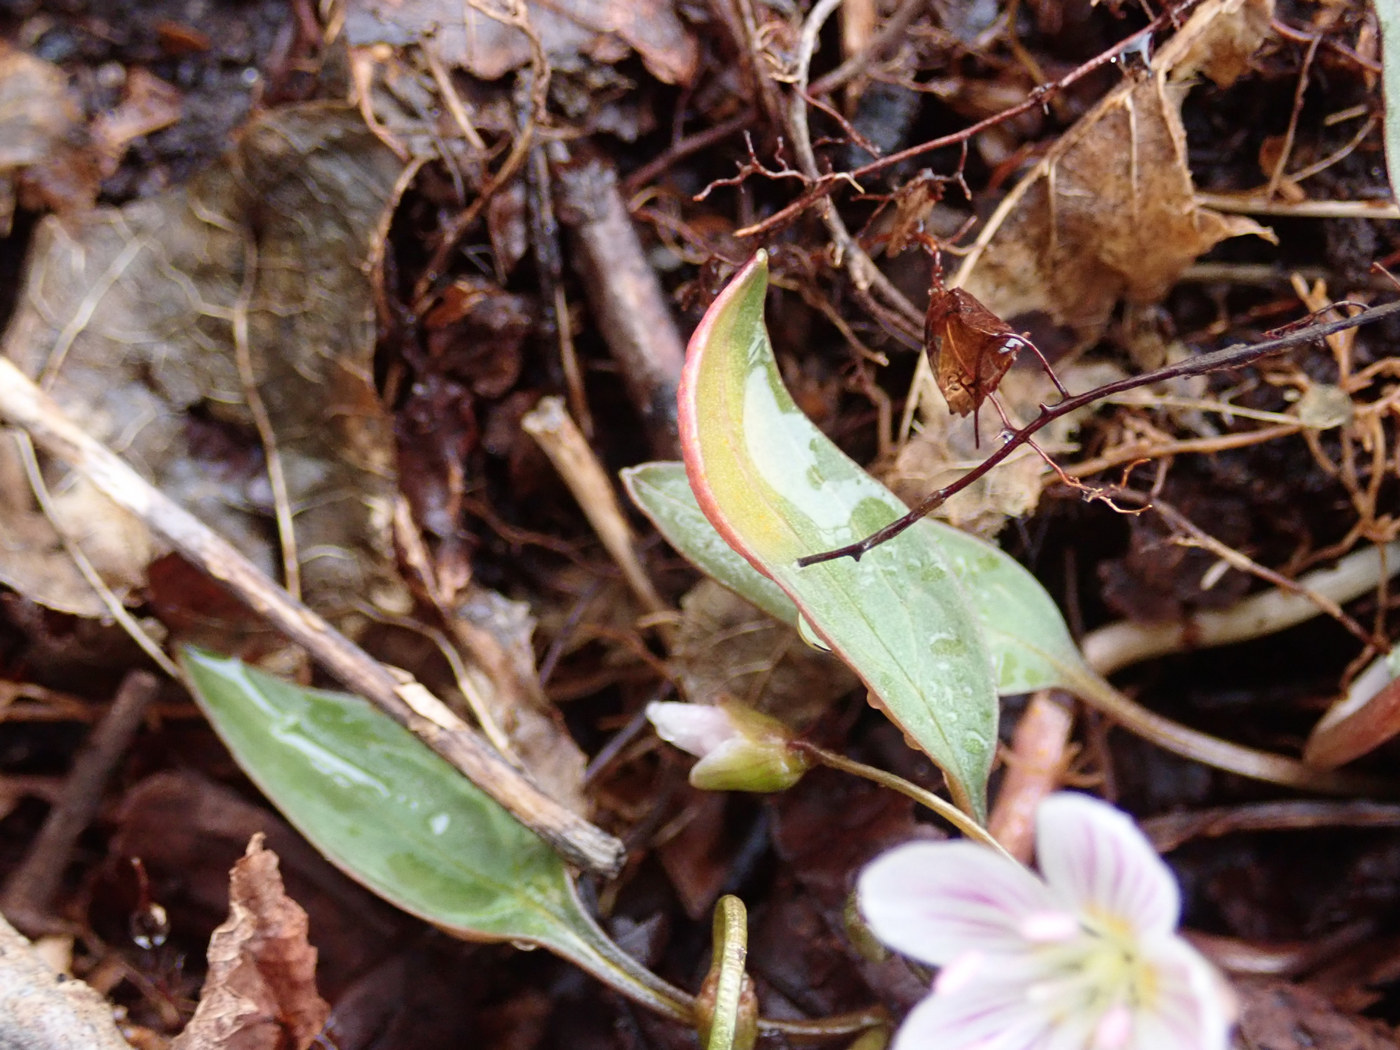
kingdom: Plantae
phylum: Tracheophyta
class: Magnoliopsida
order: Caryophyllales
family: Montiaceae
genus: Claytonia
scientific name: Claytonia caroliniana
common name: Carolina spring beauty
